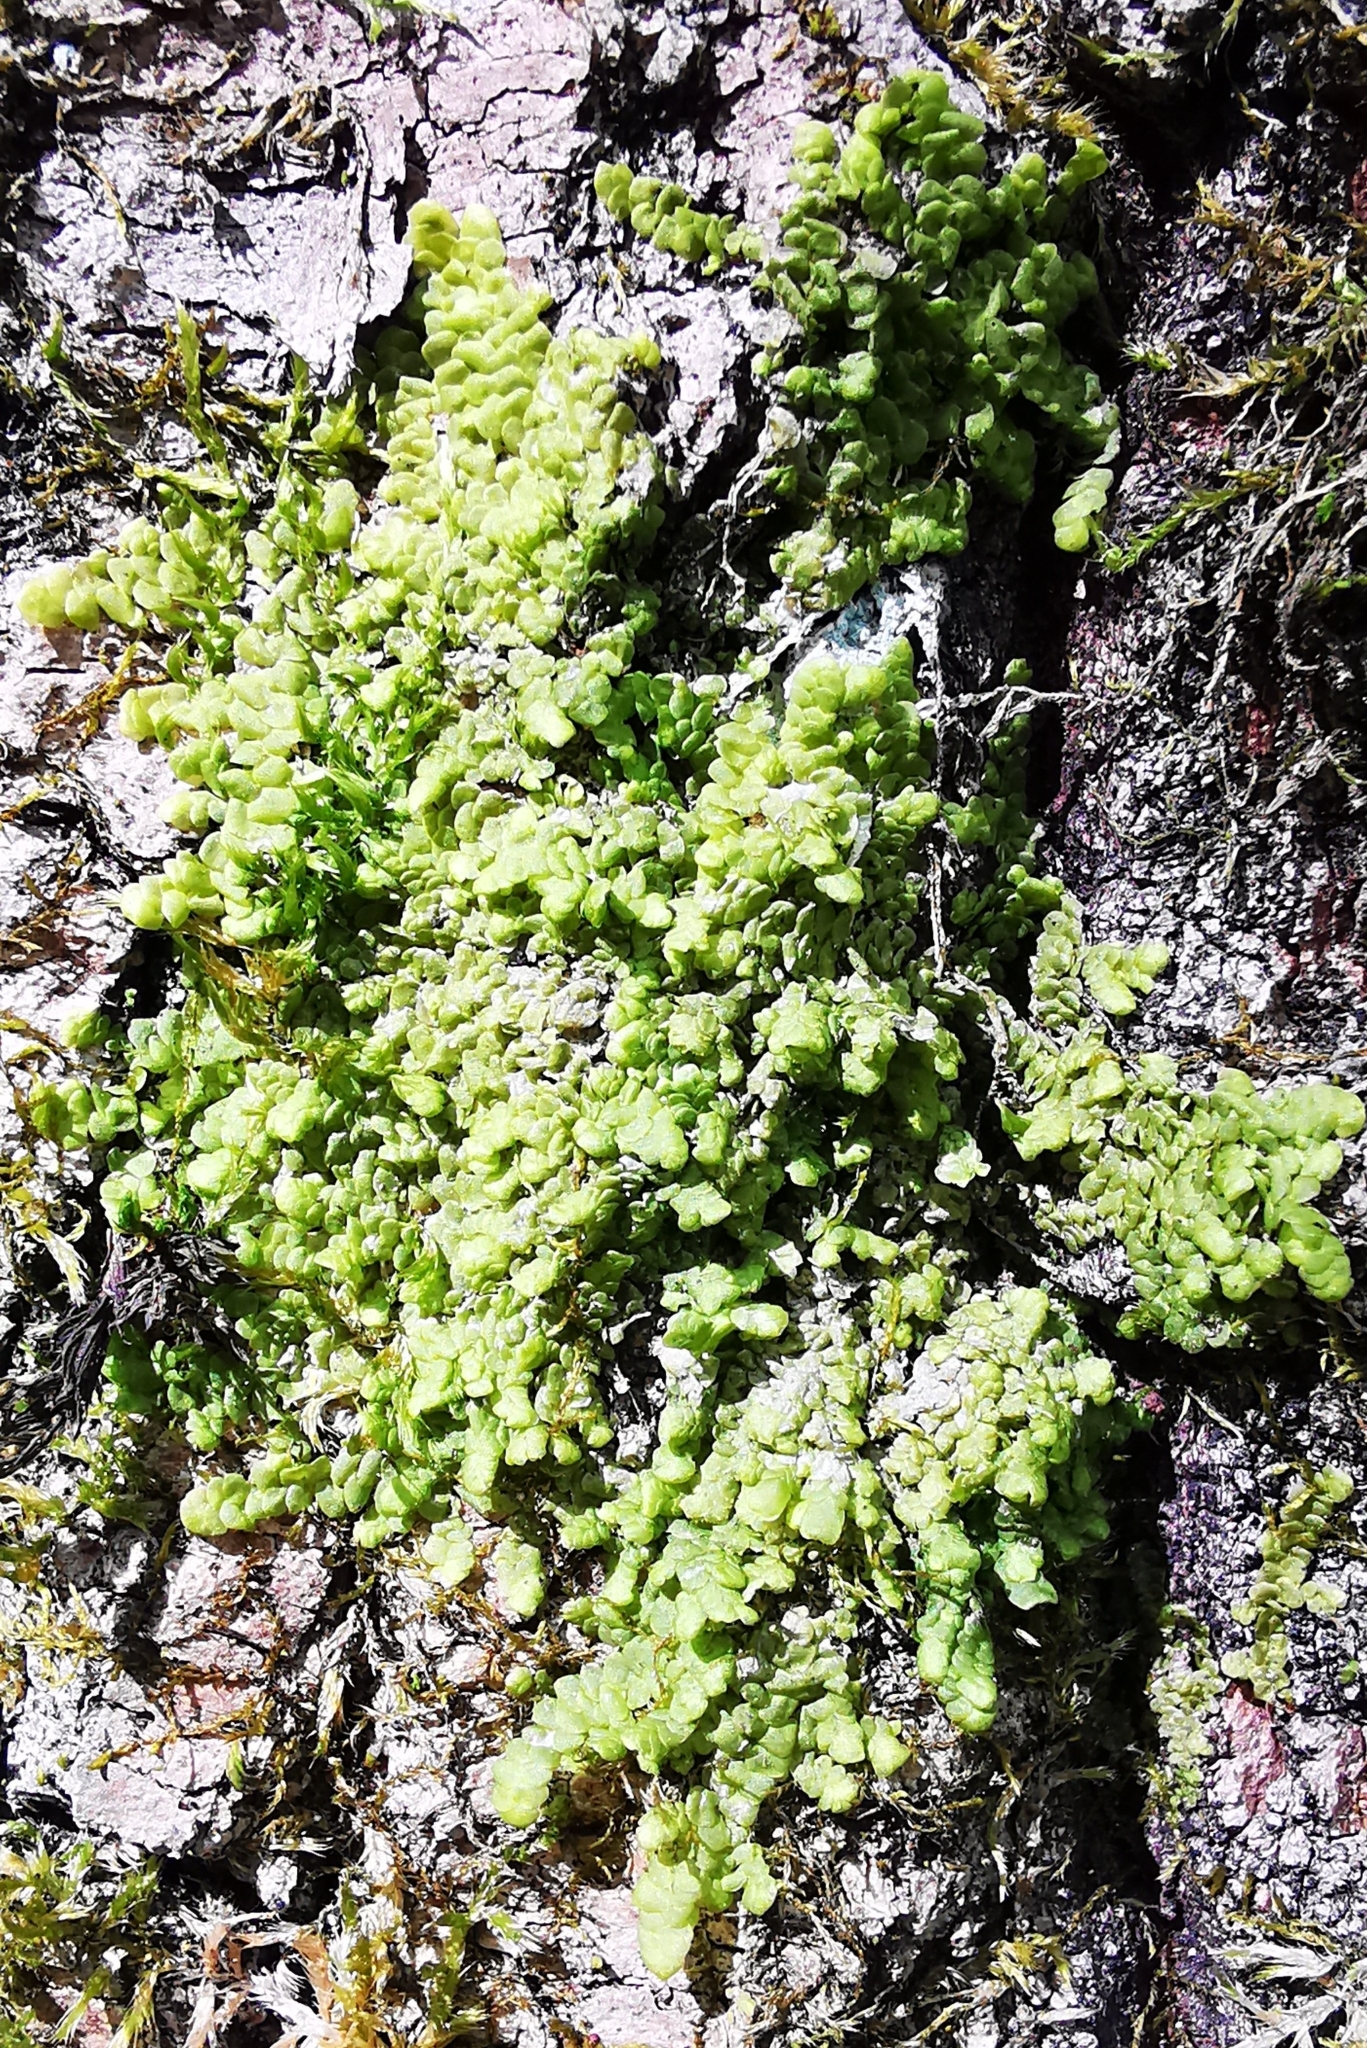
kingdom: Plantae
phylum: Marchantiophyta
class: Jungermanniopsida
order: Porellales
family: Radulaceae
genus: Radula
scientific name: Radula complanata
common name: Flat-leaved scalewort
